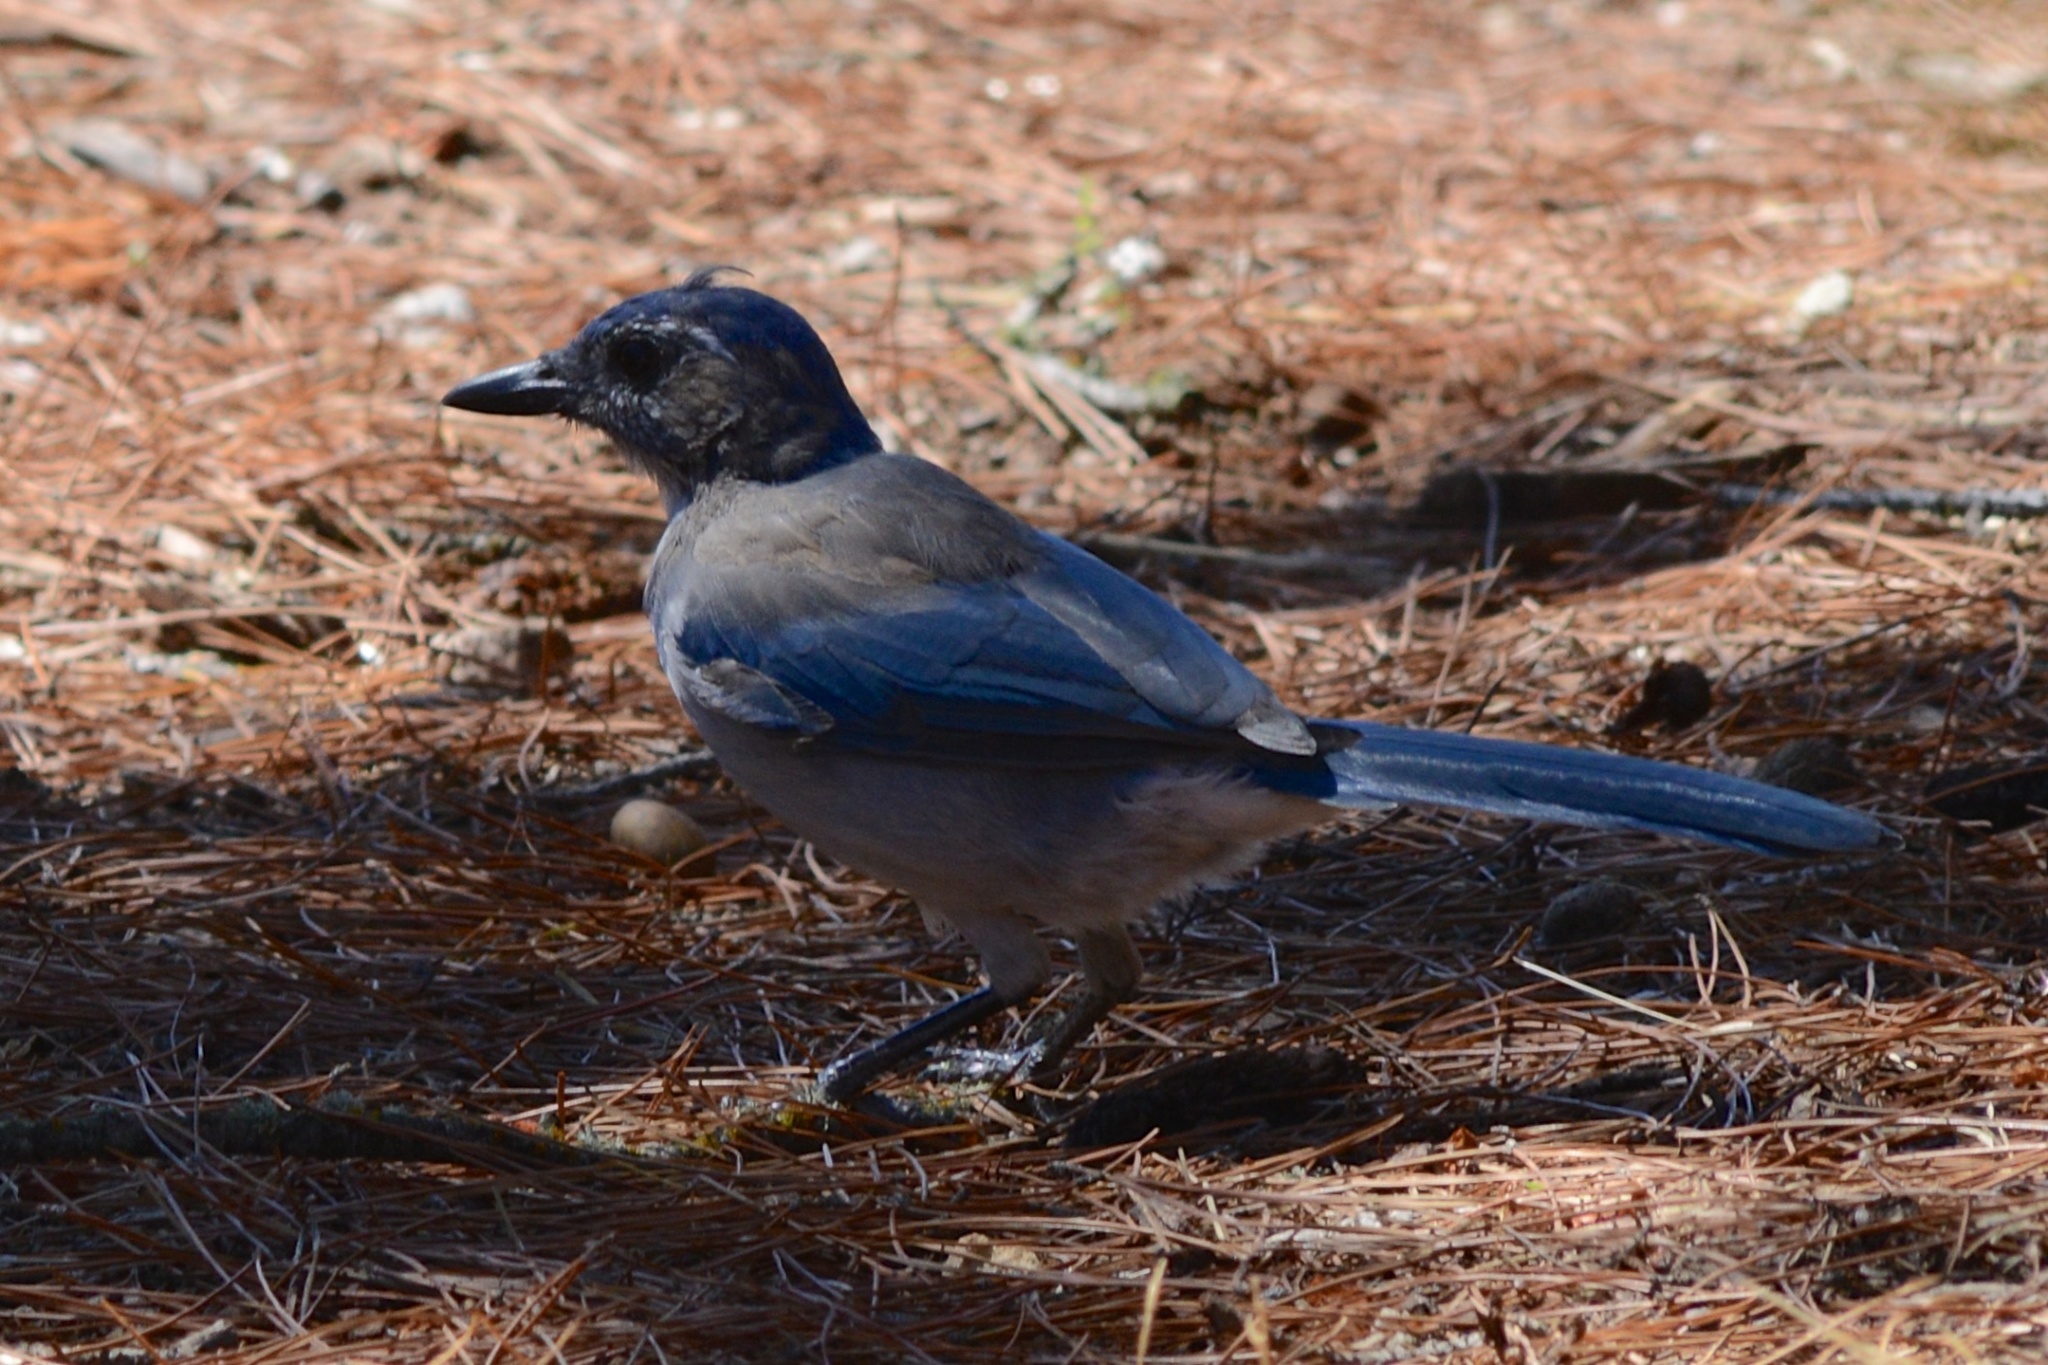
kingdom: Animalia
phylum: Chordata
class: Aves
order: Passeriformes
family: Corvidae
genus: Aphelocoma
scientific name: Aphelocoma californica
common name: California scrub-jay
